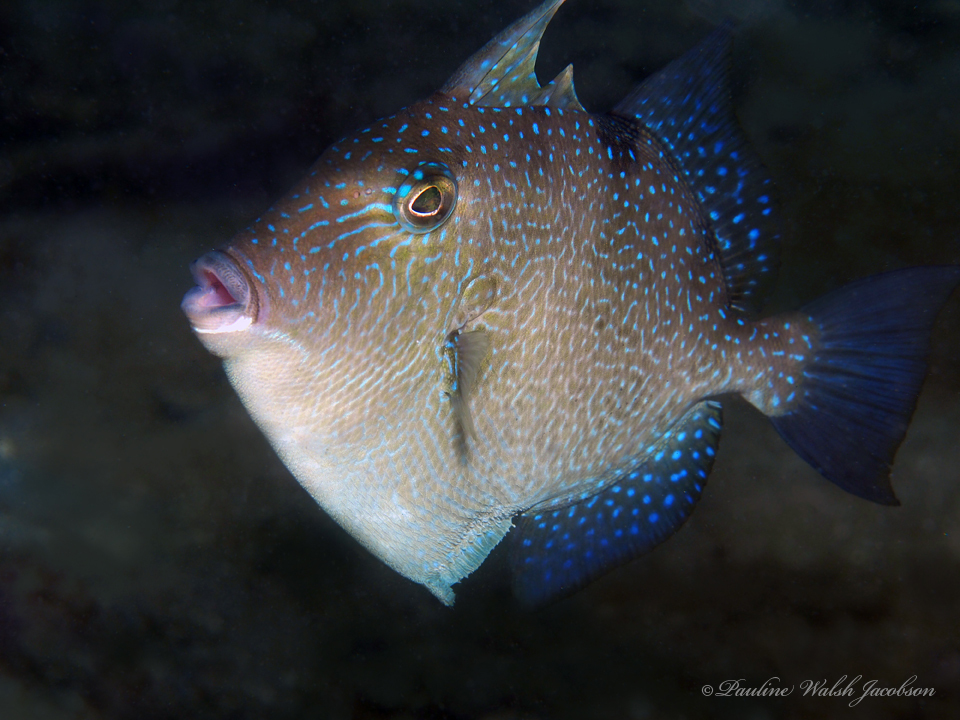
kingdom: Animalia
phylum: Chordata
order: Tetraodontiformes
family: Balistidae
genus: Balistes
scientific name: Balistes capriscus
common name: Grey triggerfish
